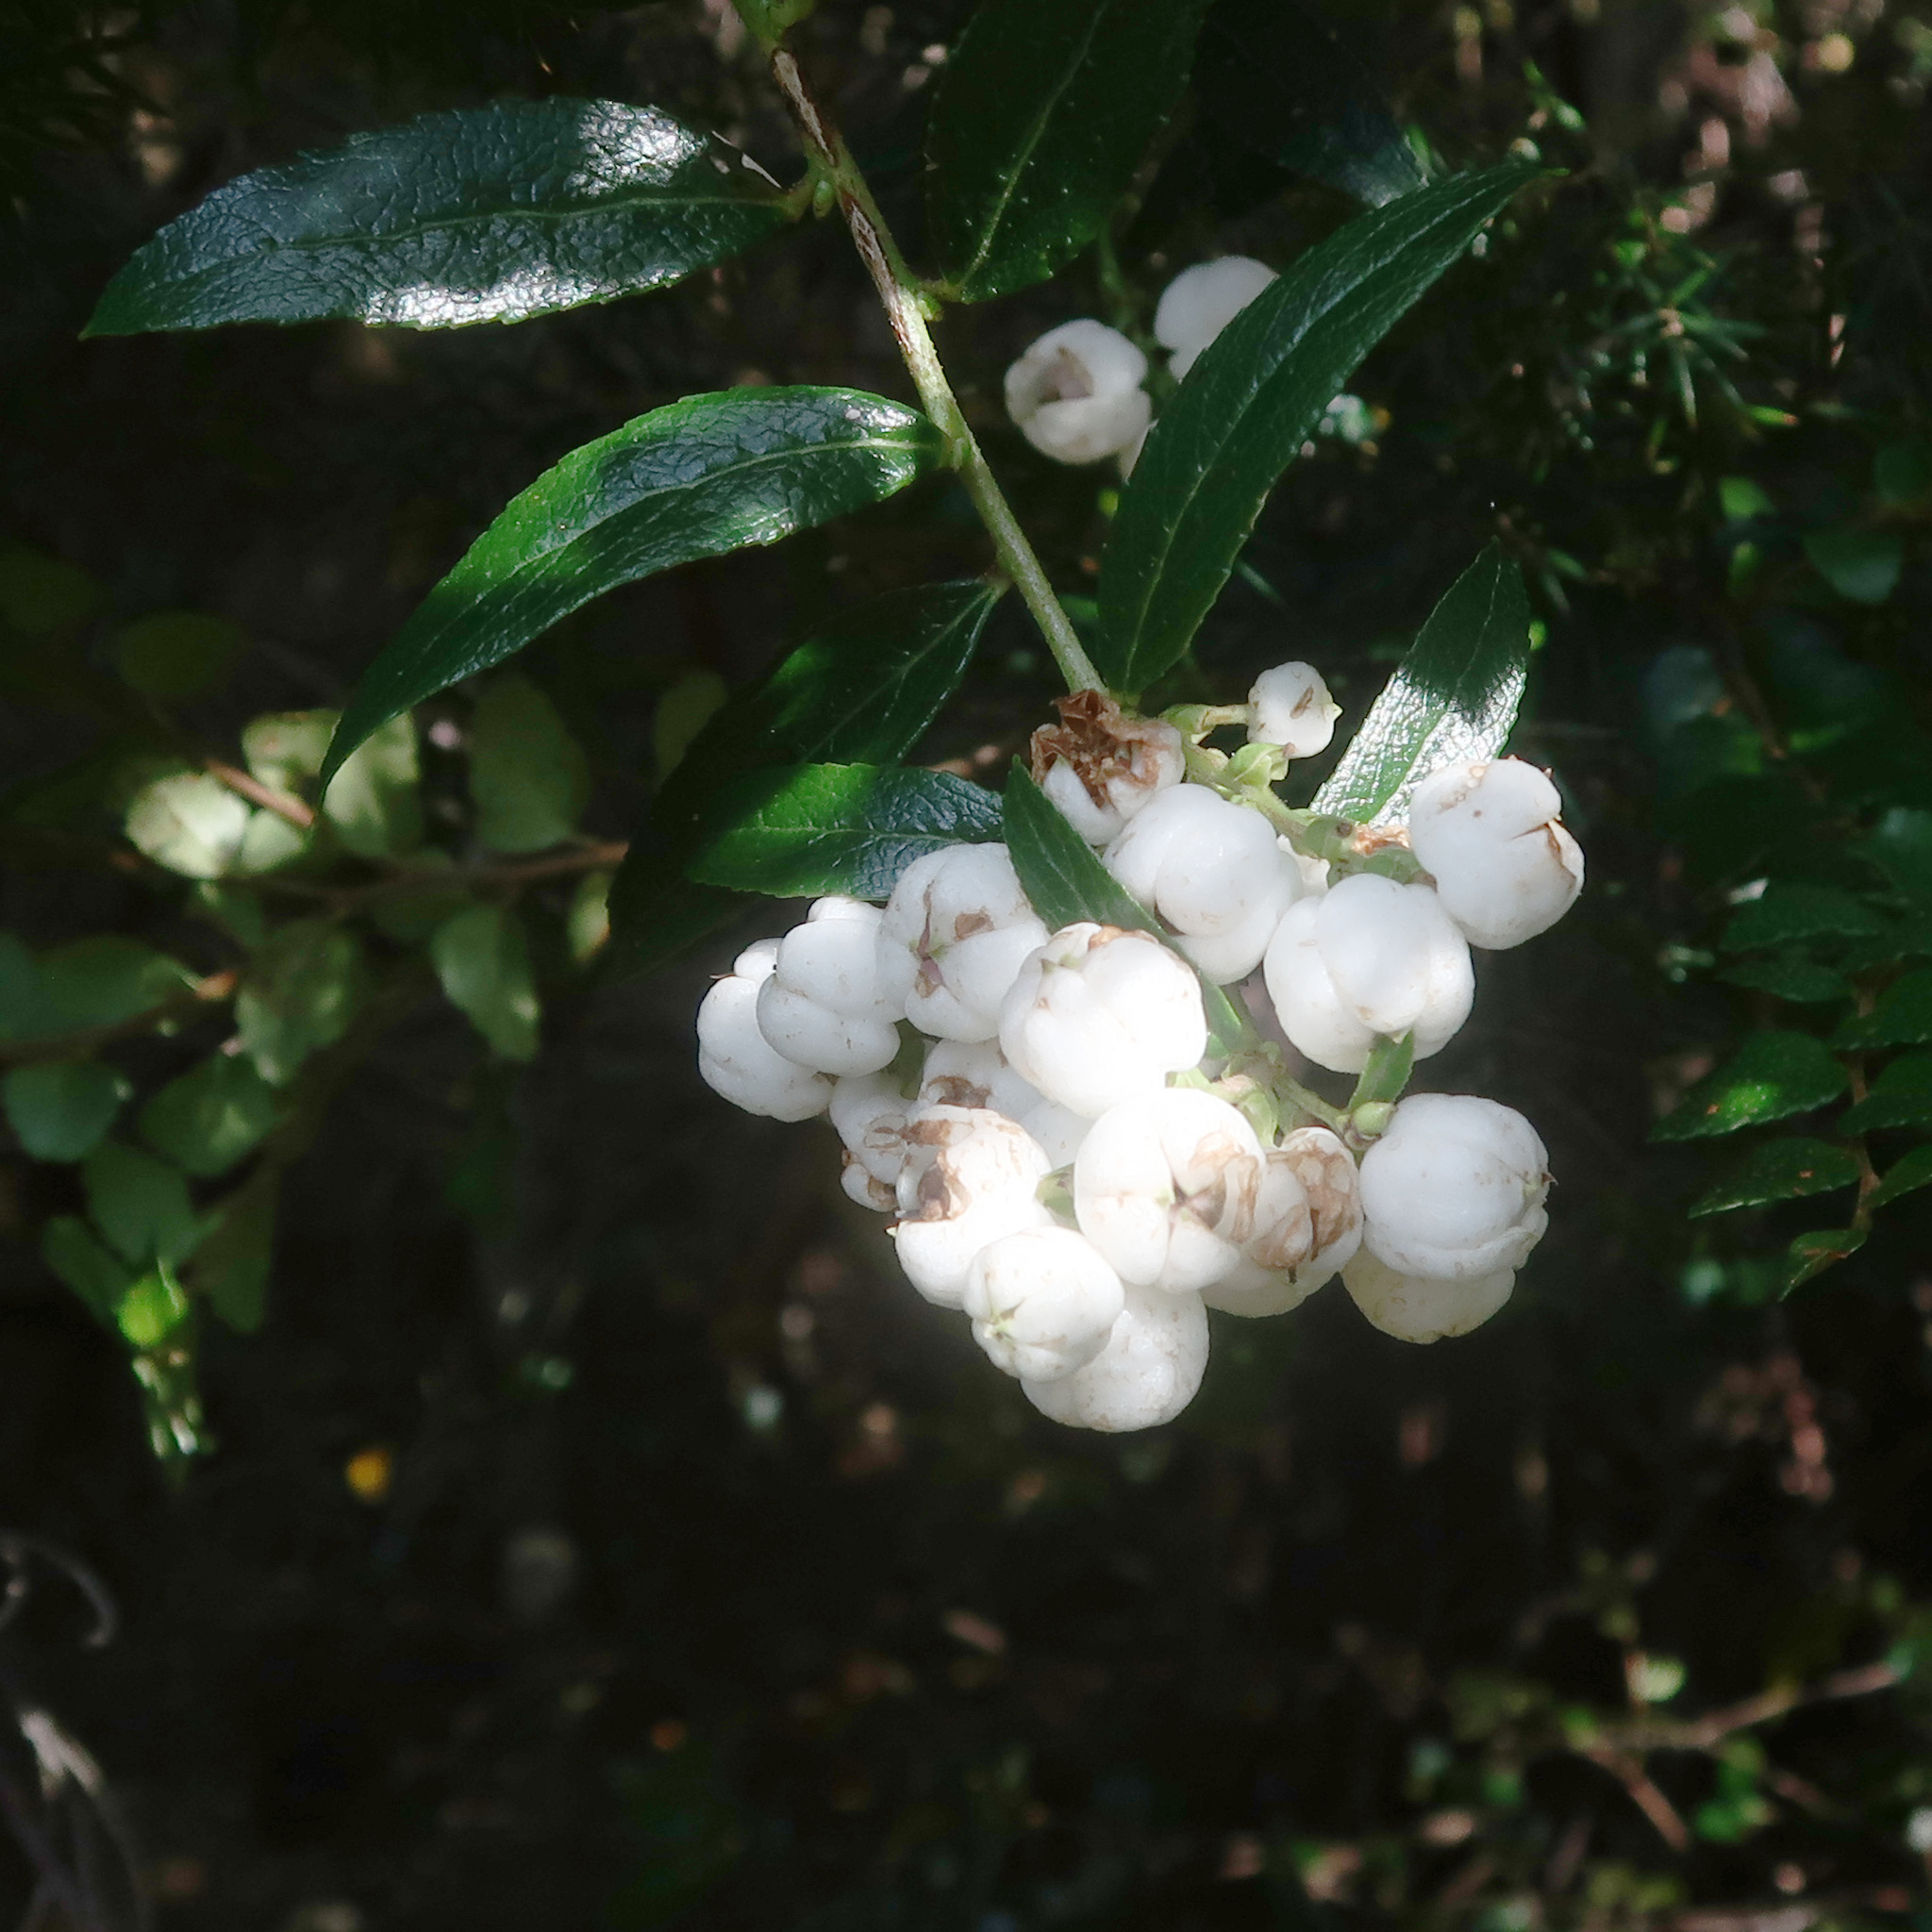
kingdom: Plantae
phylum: Tracheophyta
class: Magnoliopsida
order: Ericales
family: Ericaceae
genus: Gaultheria
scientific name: Gaultheria hispida
